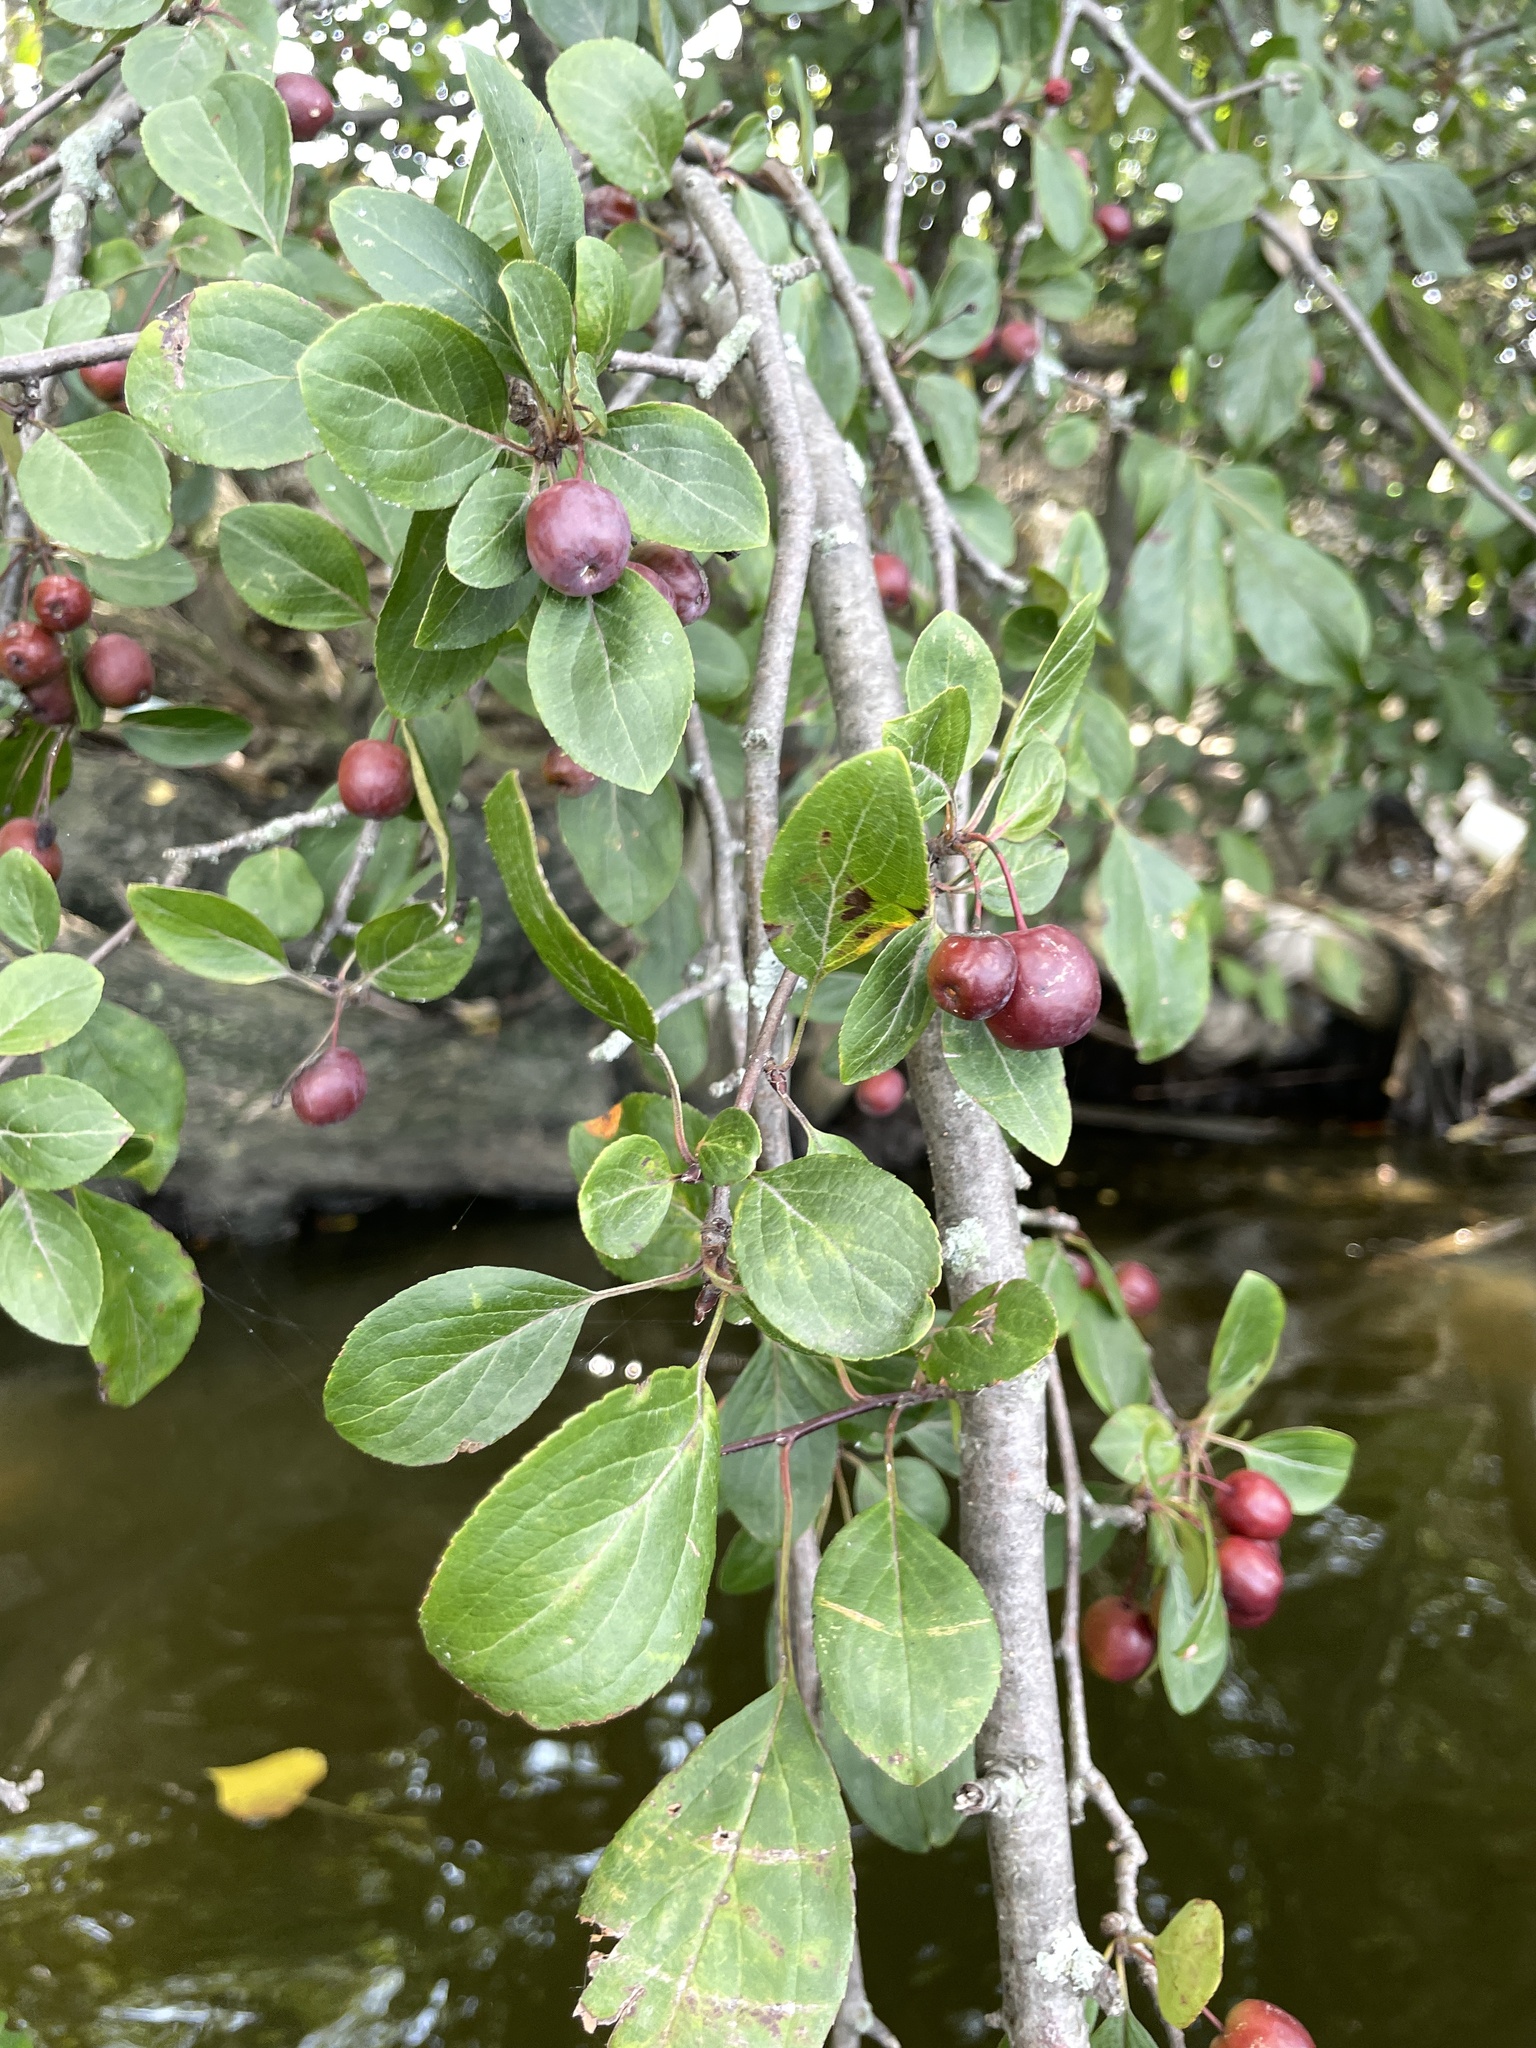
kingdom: Plantae
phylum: Tracheophyta
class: Magnoliopsida
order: Rosales
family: Rosaceae
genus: Malus
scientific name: Malus baccata
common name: Siberian crab
